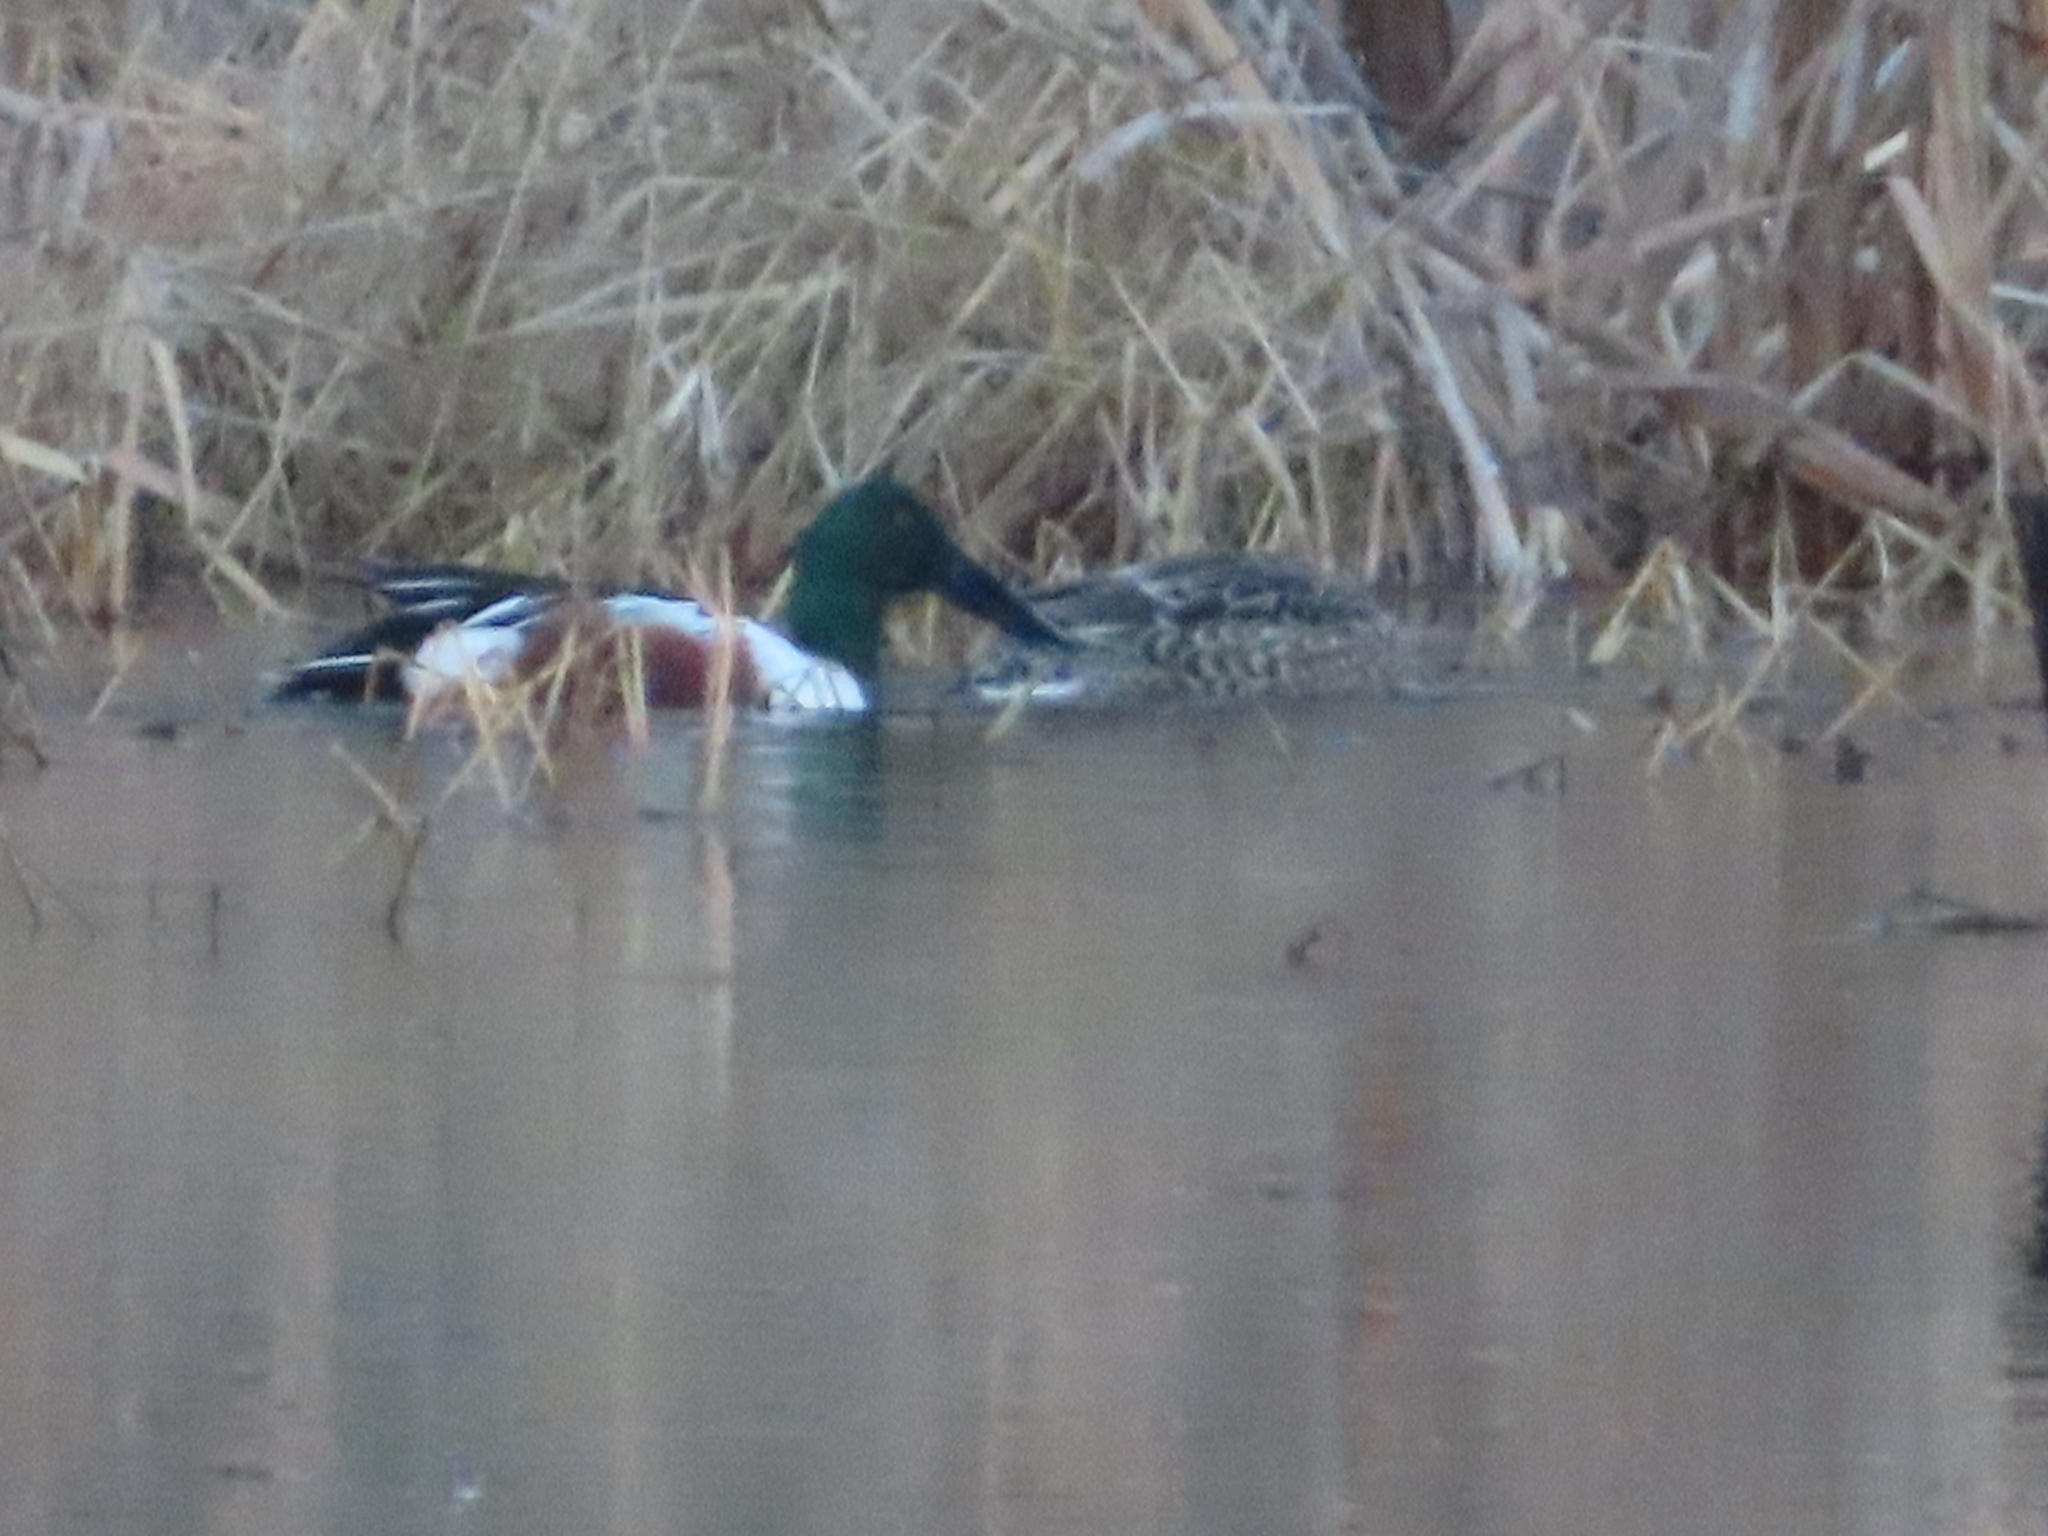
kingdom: Animalia
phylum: Chordata
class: Aves
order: Anseriformes
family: Anatidae
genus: Spatula
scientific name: Spatula clypeata
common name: Northern shoveler
